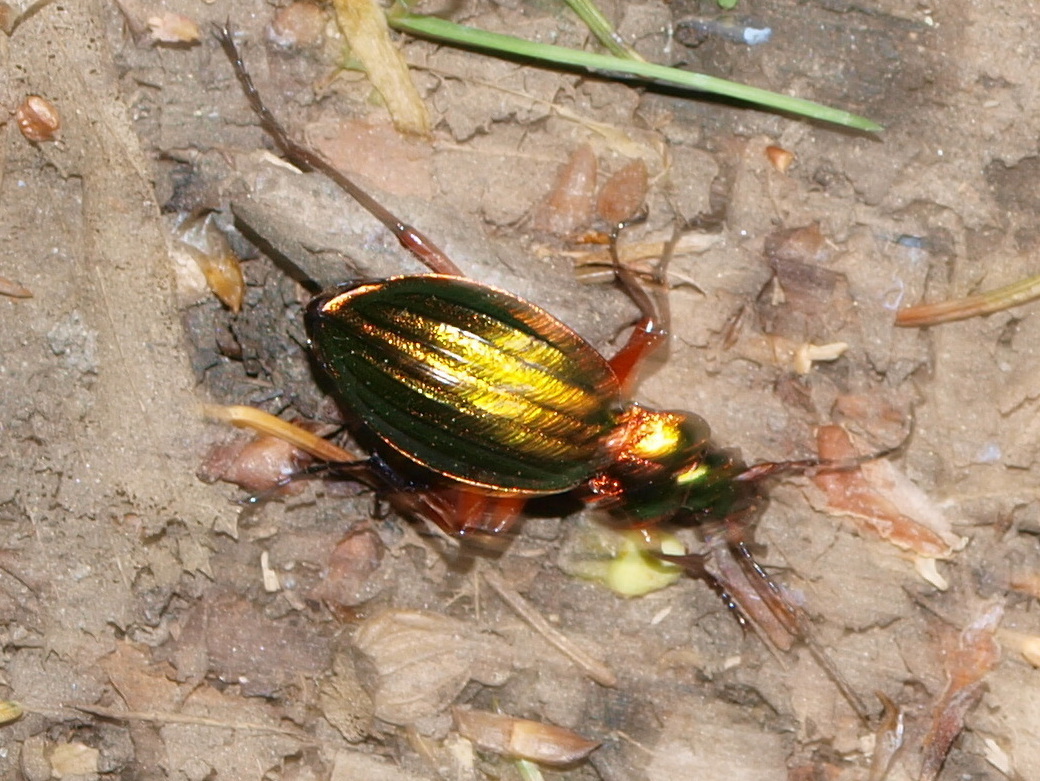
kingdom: Animalia
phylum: Arthropoda
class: Insecta
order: Coleoptera
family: Carabidae
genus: Carabus
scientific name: Carabus auronitens
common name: Carabus auronitens
